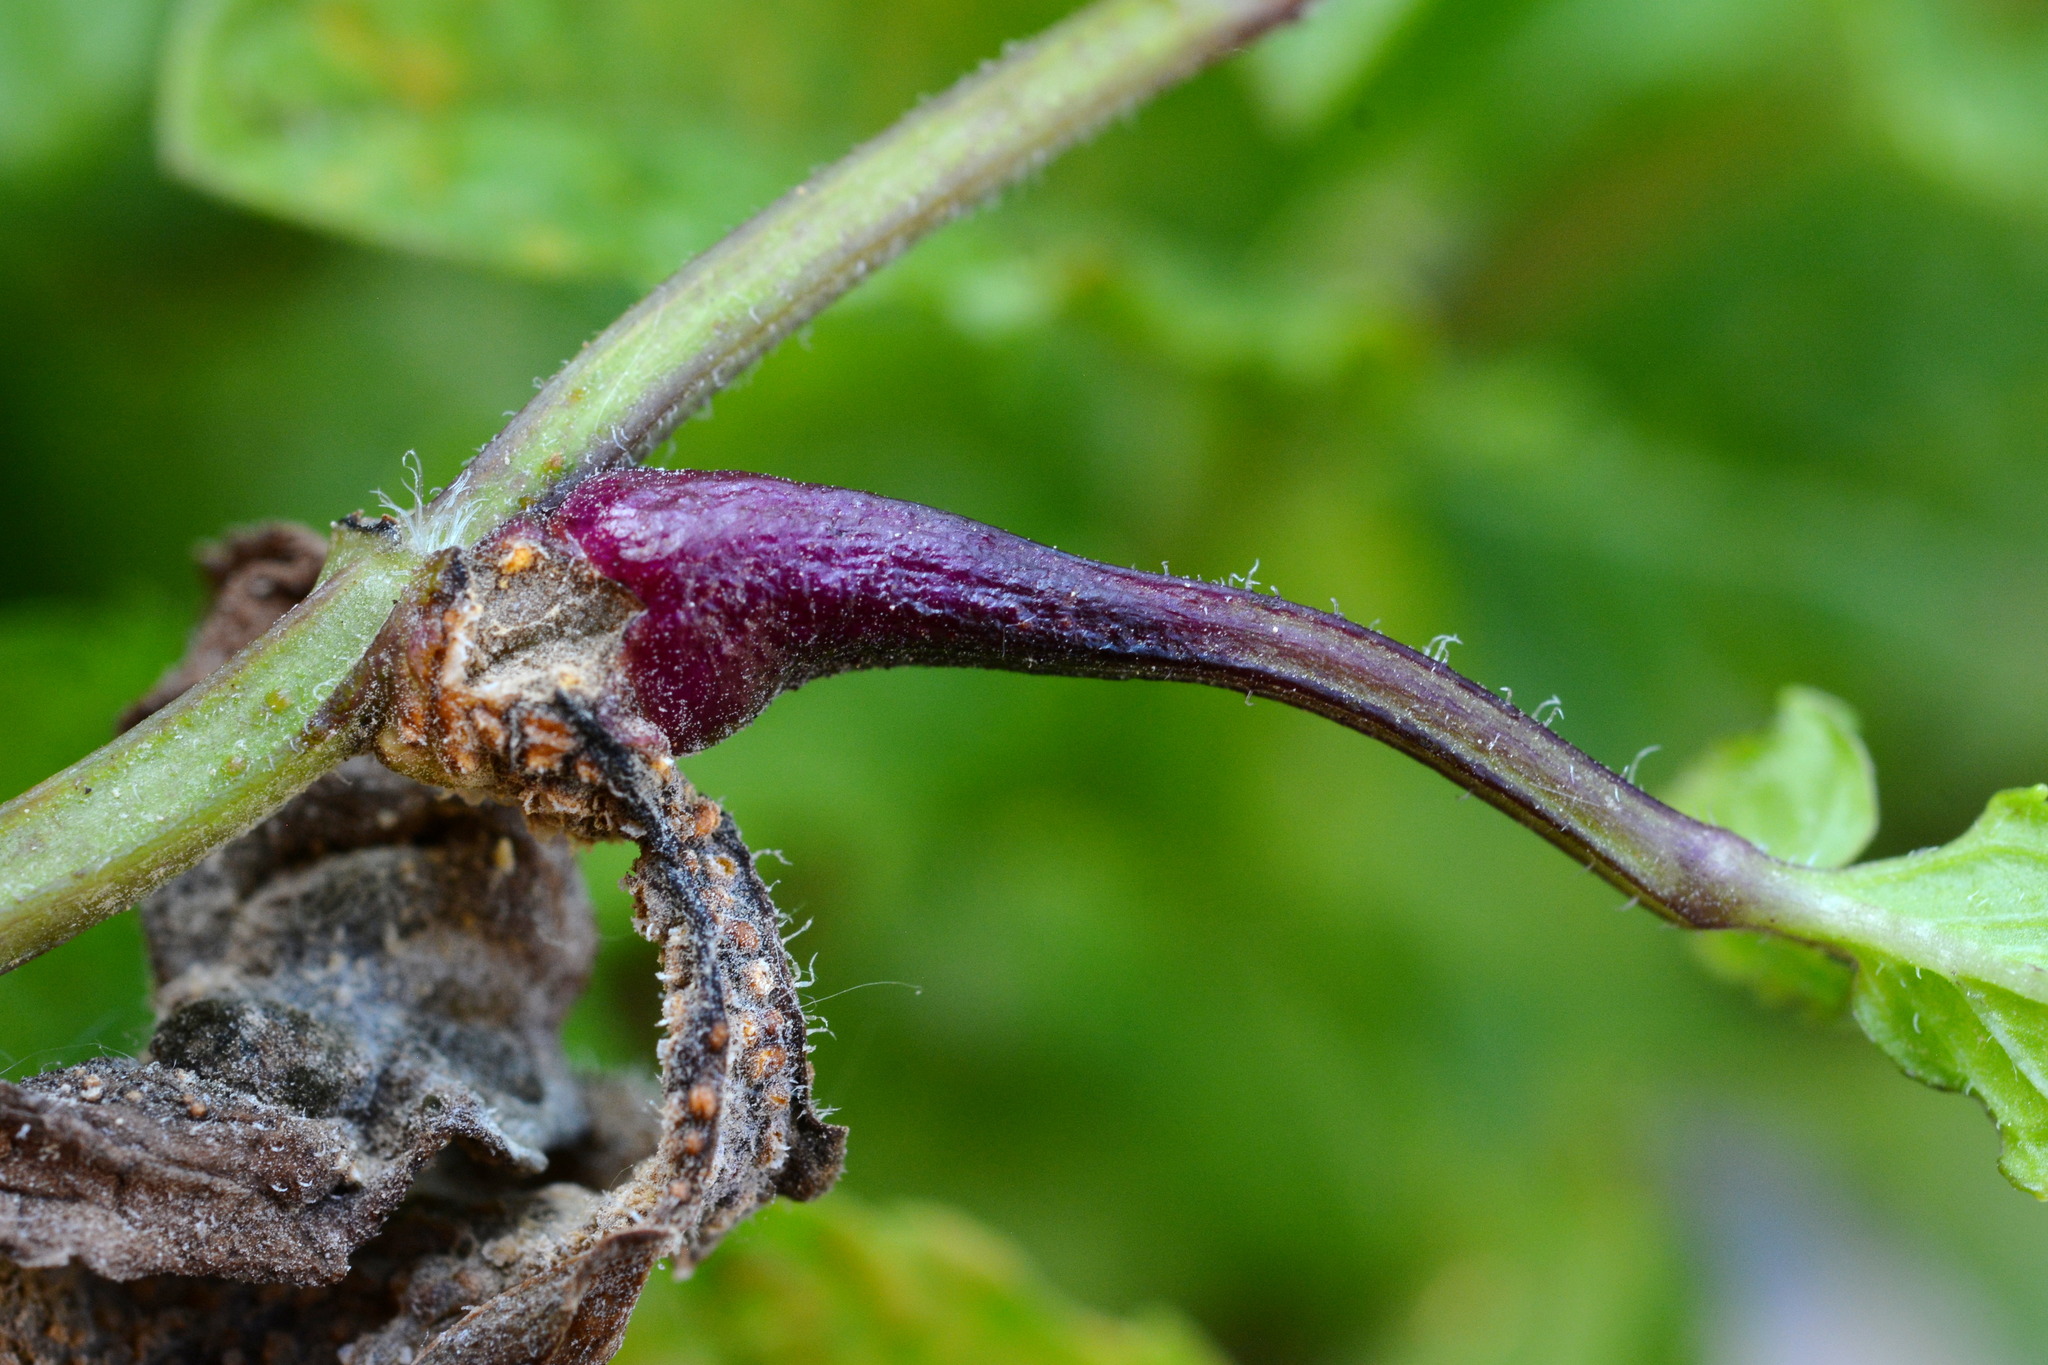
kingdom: Fungi
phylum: Basidiomycota
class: Pucciniomycetes
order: Pucciniales
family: Pucciniaceae
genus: Puccinia
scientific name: Puccinia menthae
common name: Mint rust
